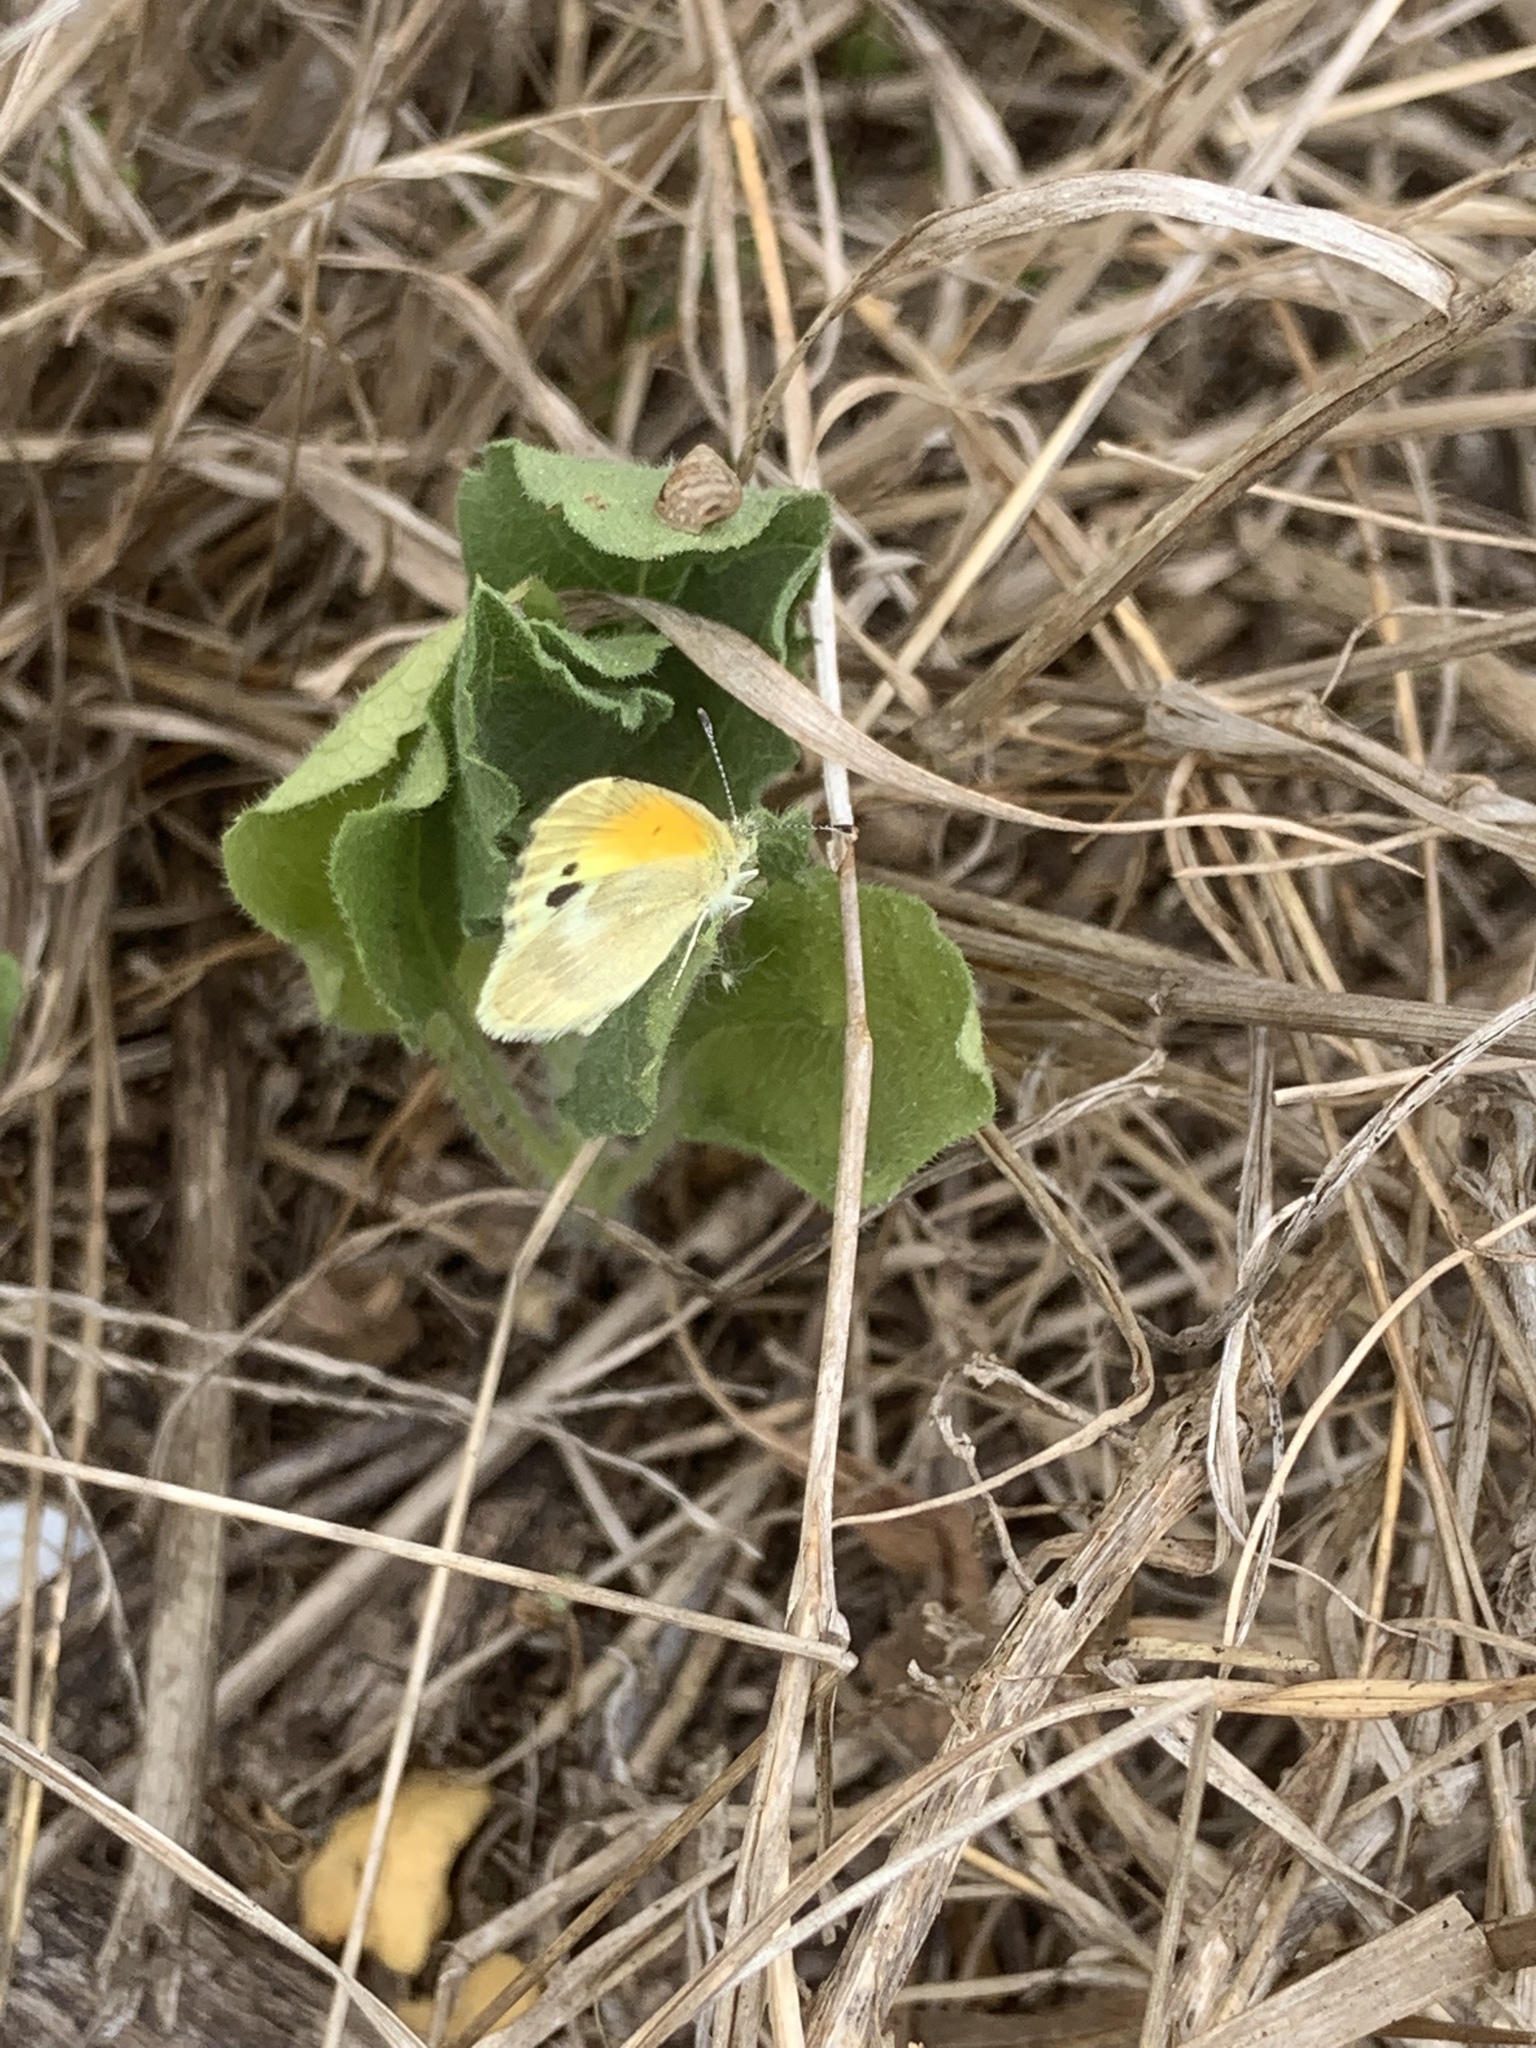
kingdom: Animalia
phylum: Arthropoda
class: Insecta
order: Lepidoptera
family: Pieridae
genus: Nathalis
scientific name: Nathalis iole
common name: Dainty sulphur
